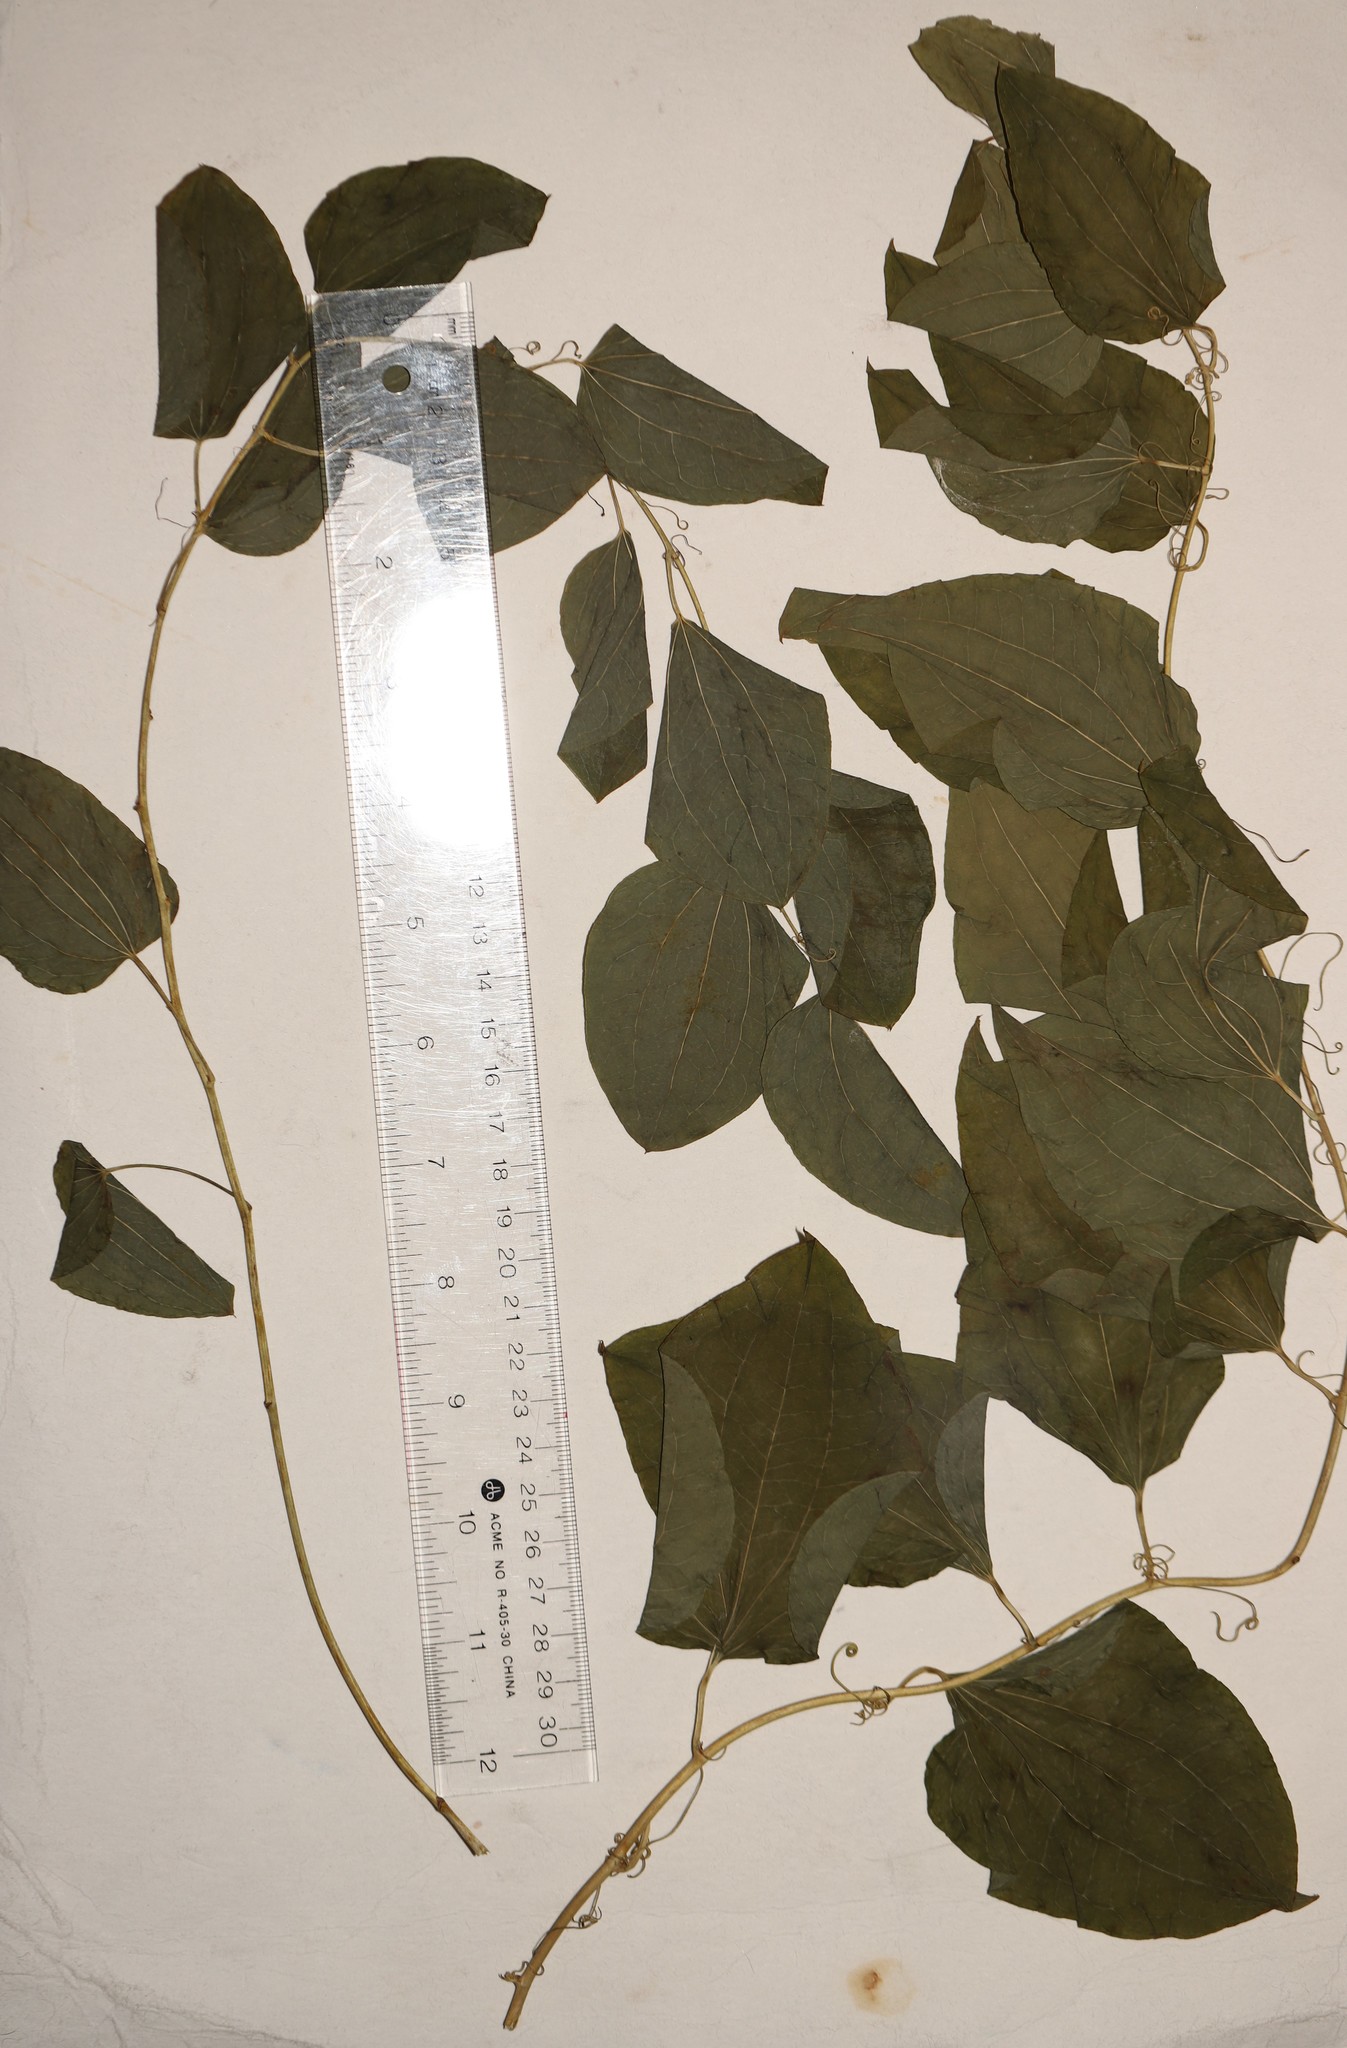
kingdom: Plantae
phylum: Tracheophyta
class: Liliopsida
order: Liliales
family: Smilacaceae
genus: Smilax
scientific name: Smilax lasioneura
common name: Blue ridge carrionflower
